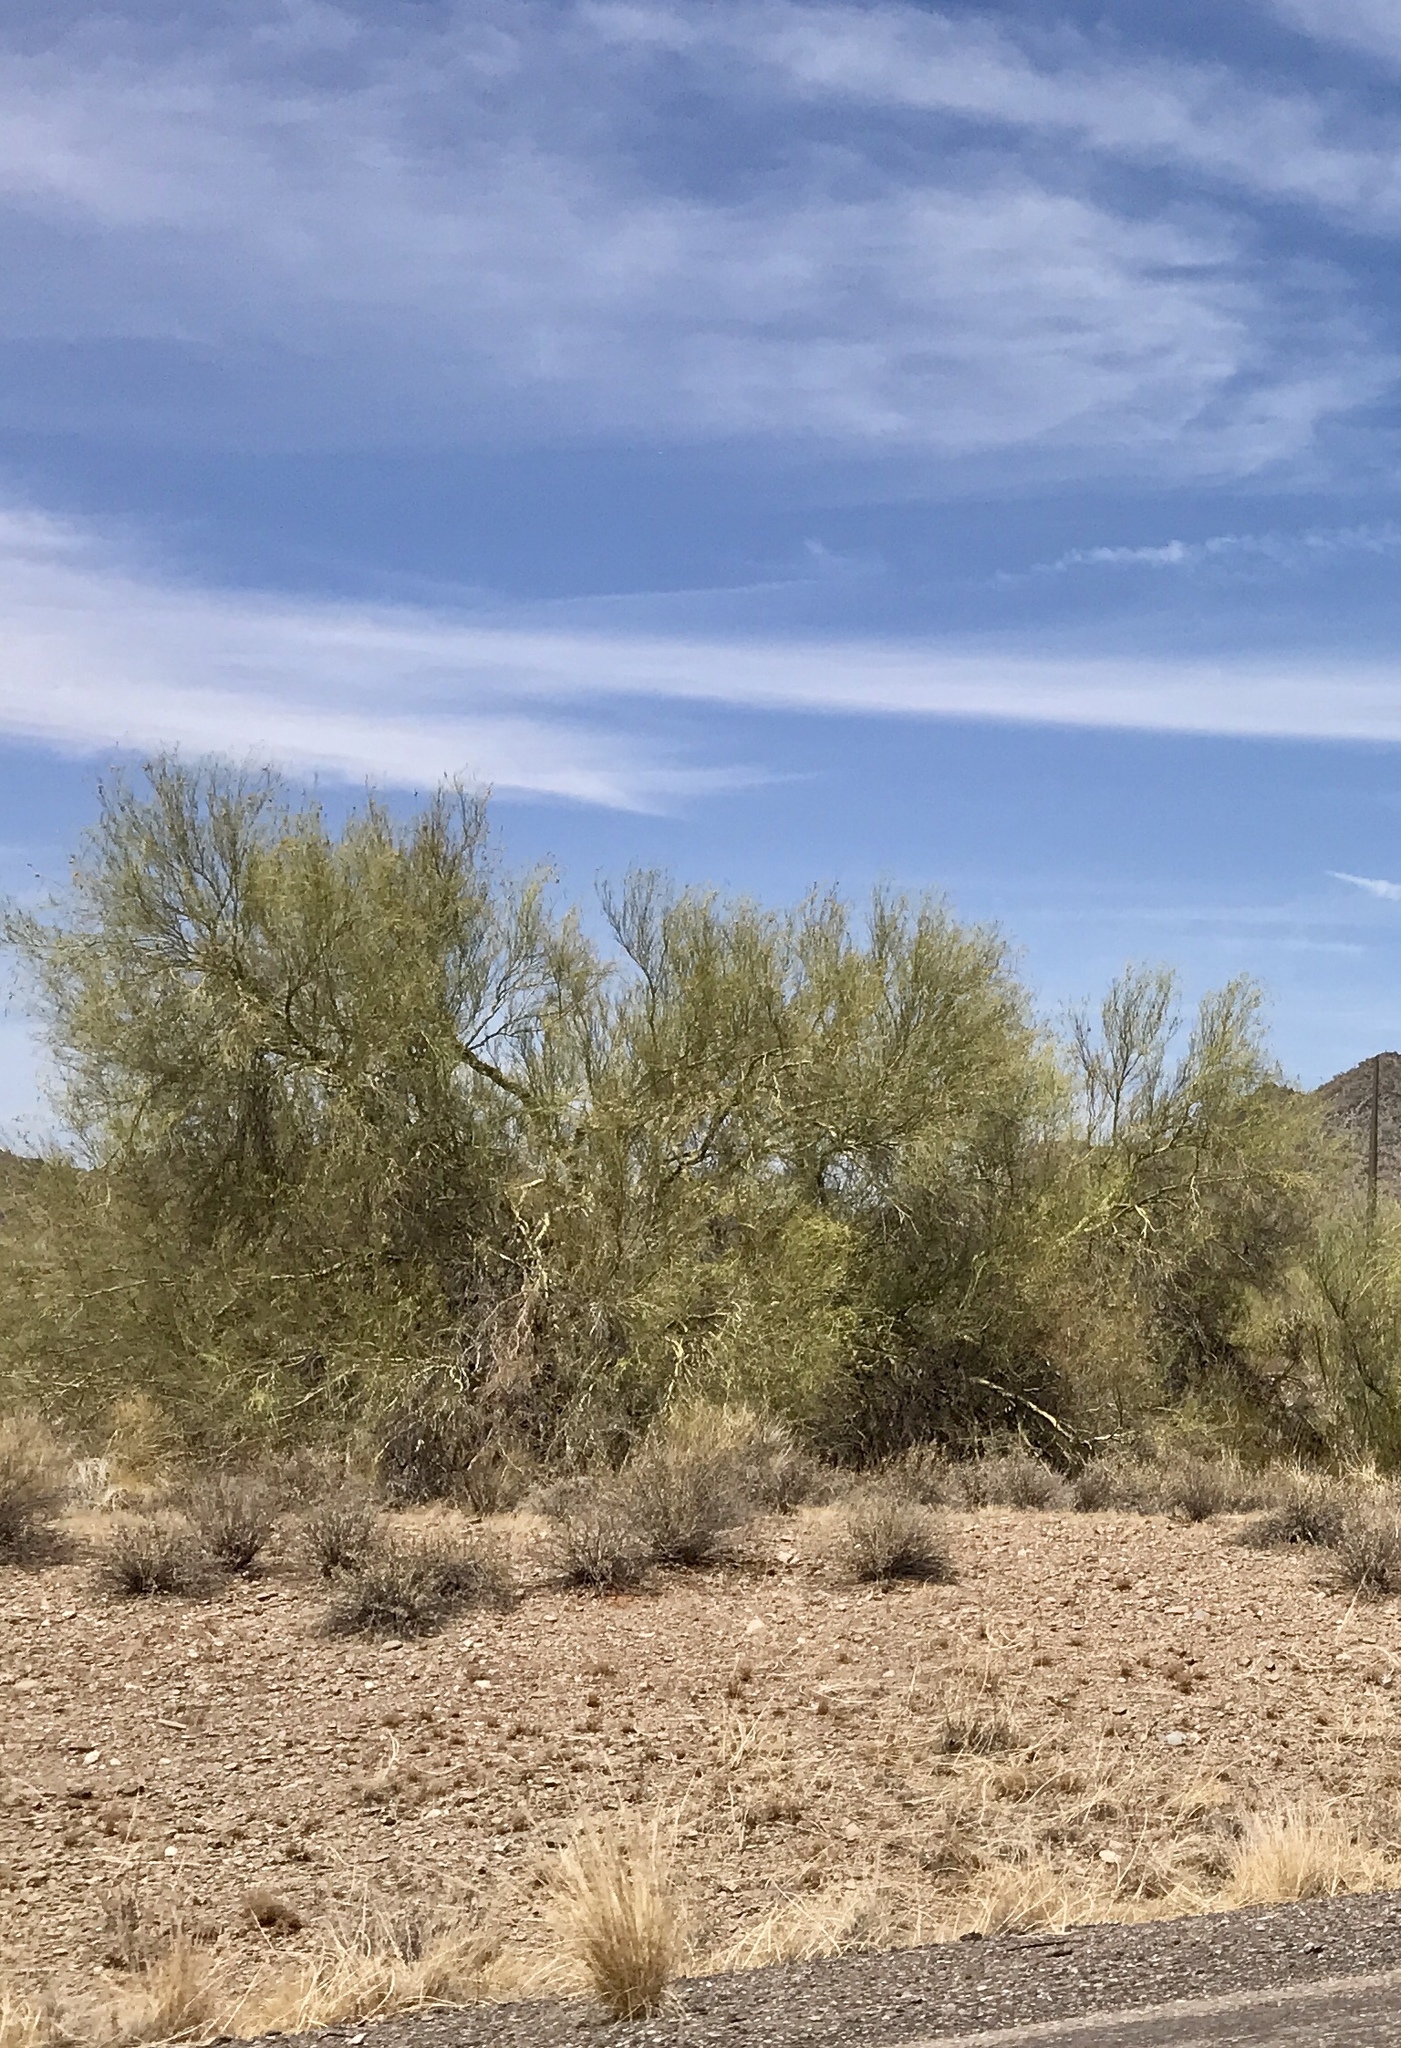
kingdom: Plantae
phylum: Tracheophyta
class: Magnoliopsida
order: Fabales
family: Fabaceae
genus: Parkinsonia
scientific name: Parkinsonia microphylla
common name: Yellow paloverde
